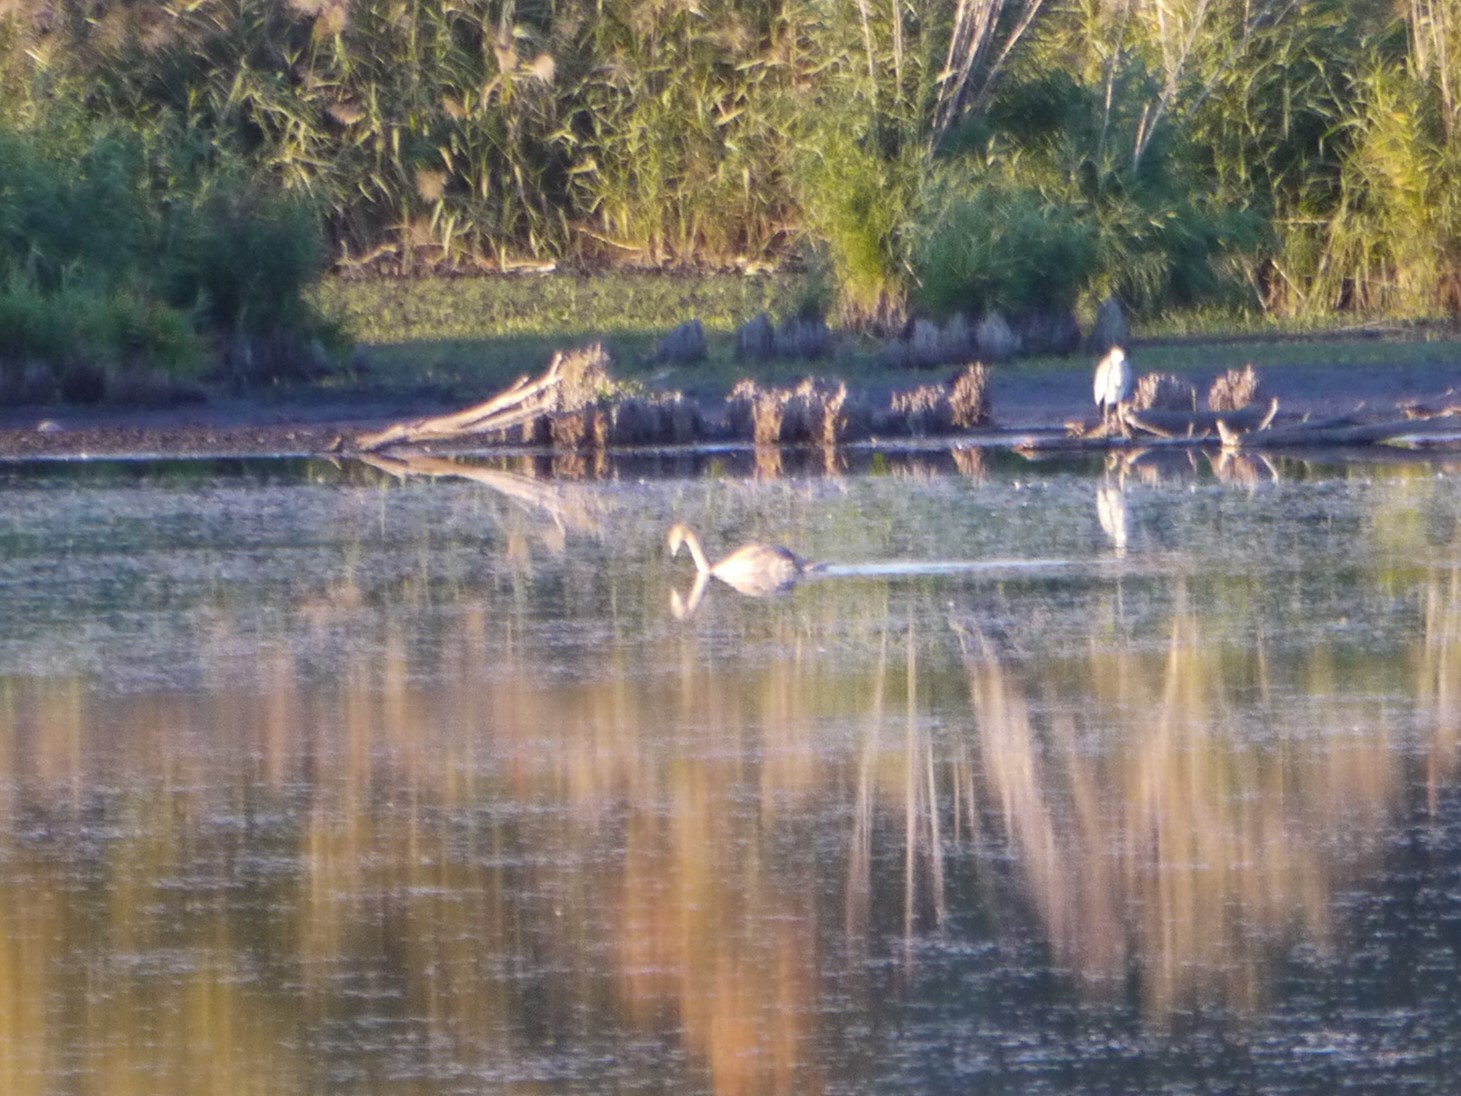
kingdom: Animalia
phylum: Chordata
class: Aves
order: Anseriformes
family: Anatidae
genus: Cygnus
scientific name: Cygnus olor
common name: Mute swan
